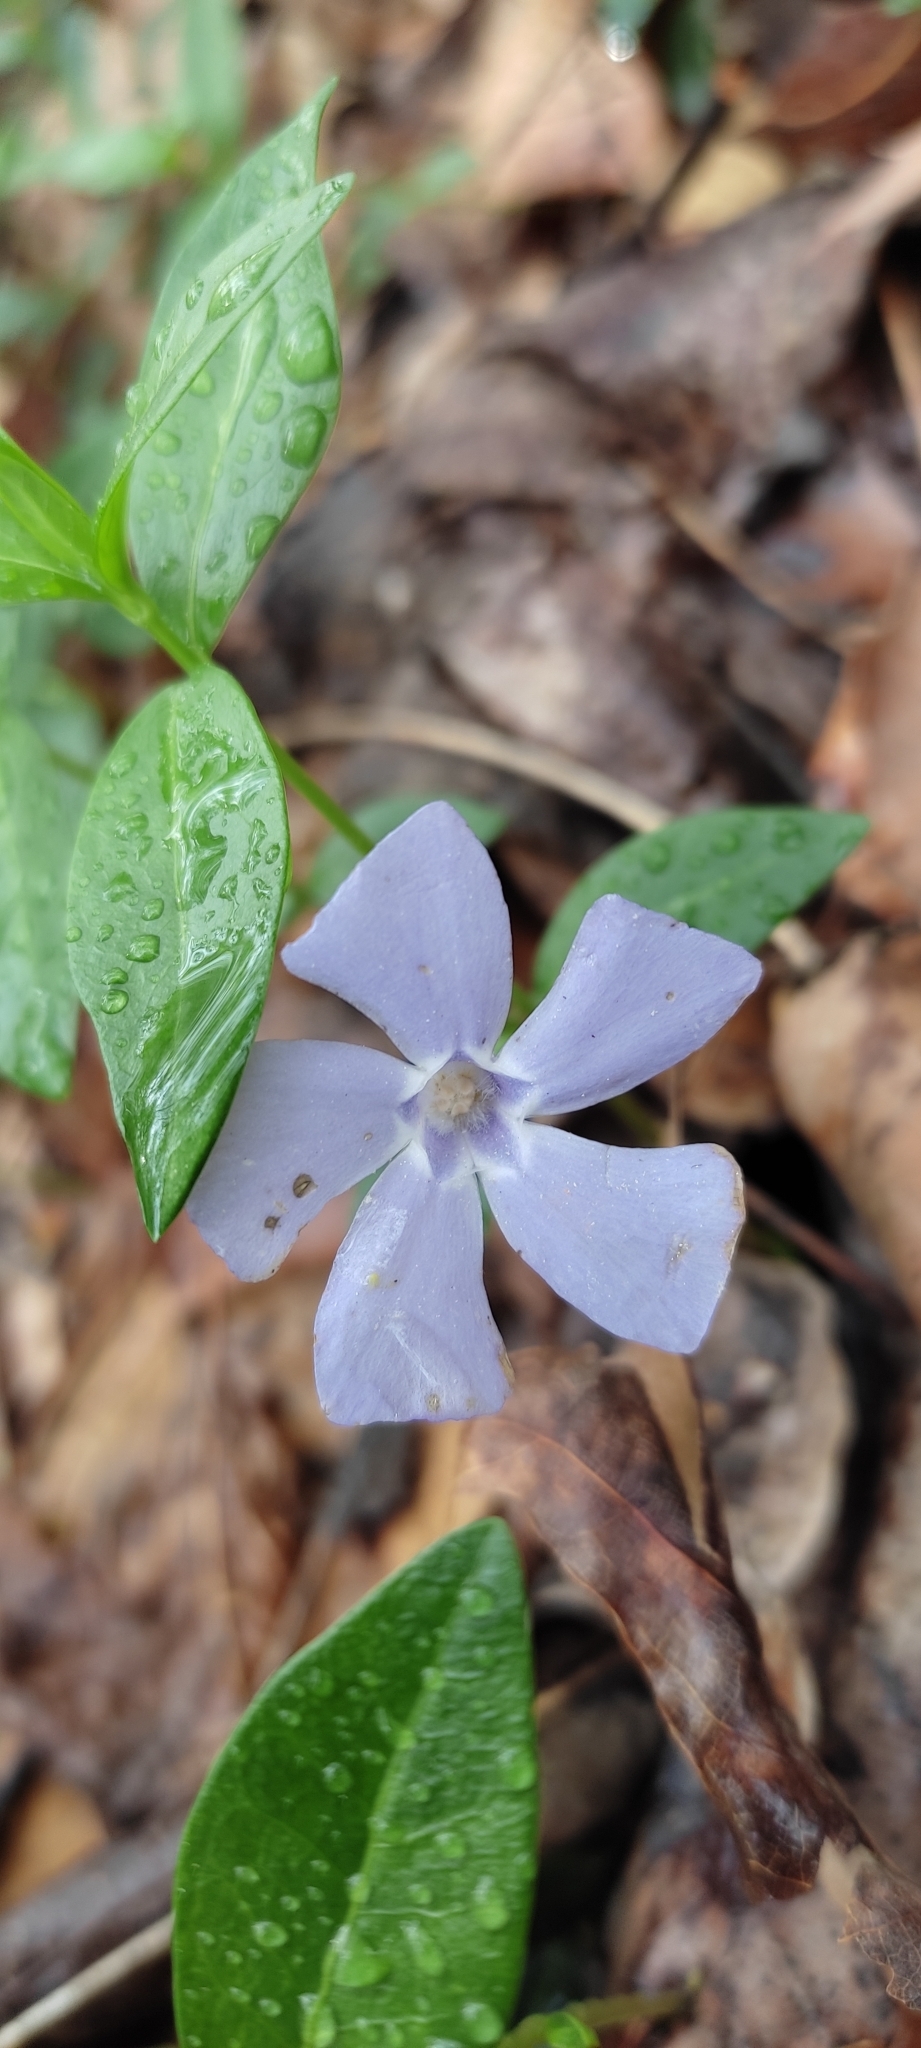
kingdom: Plantae
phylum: Tracheophyta
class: Magnoliopsida
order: Gentianales
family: Apocynaceae
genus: Vinca
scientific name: Vinca minor
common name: Lesser periwinkle
